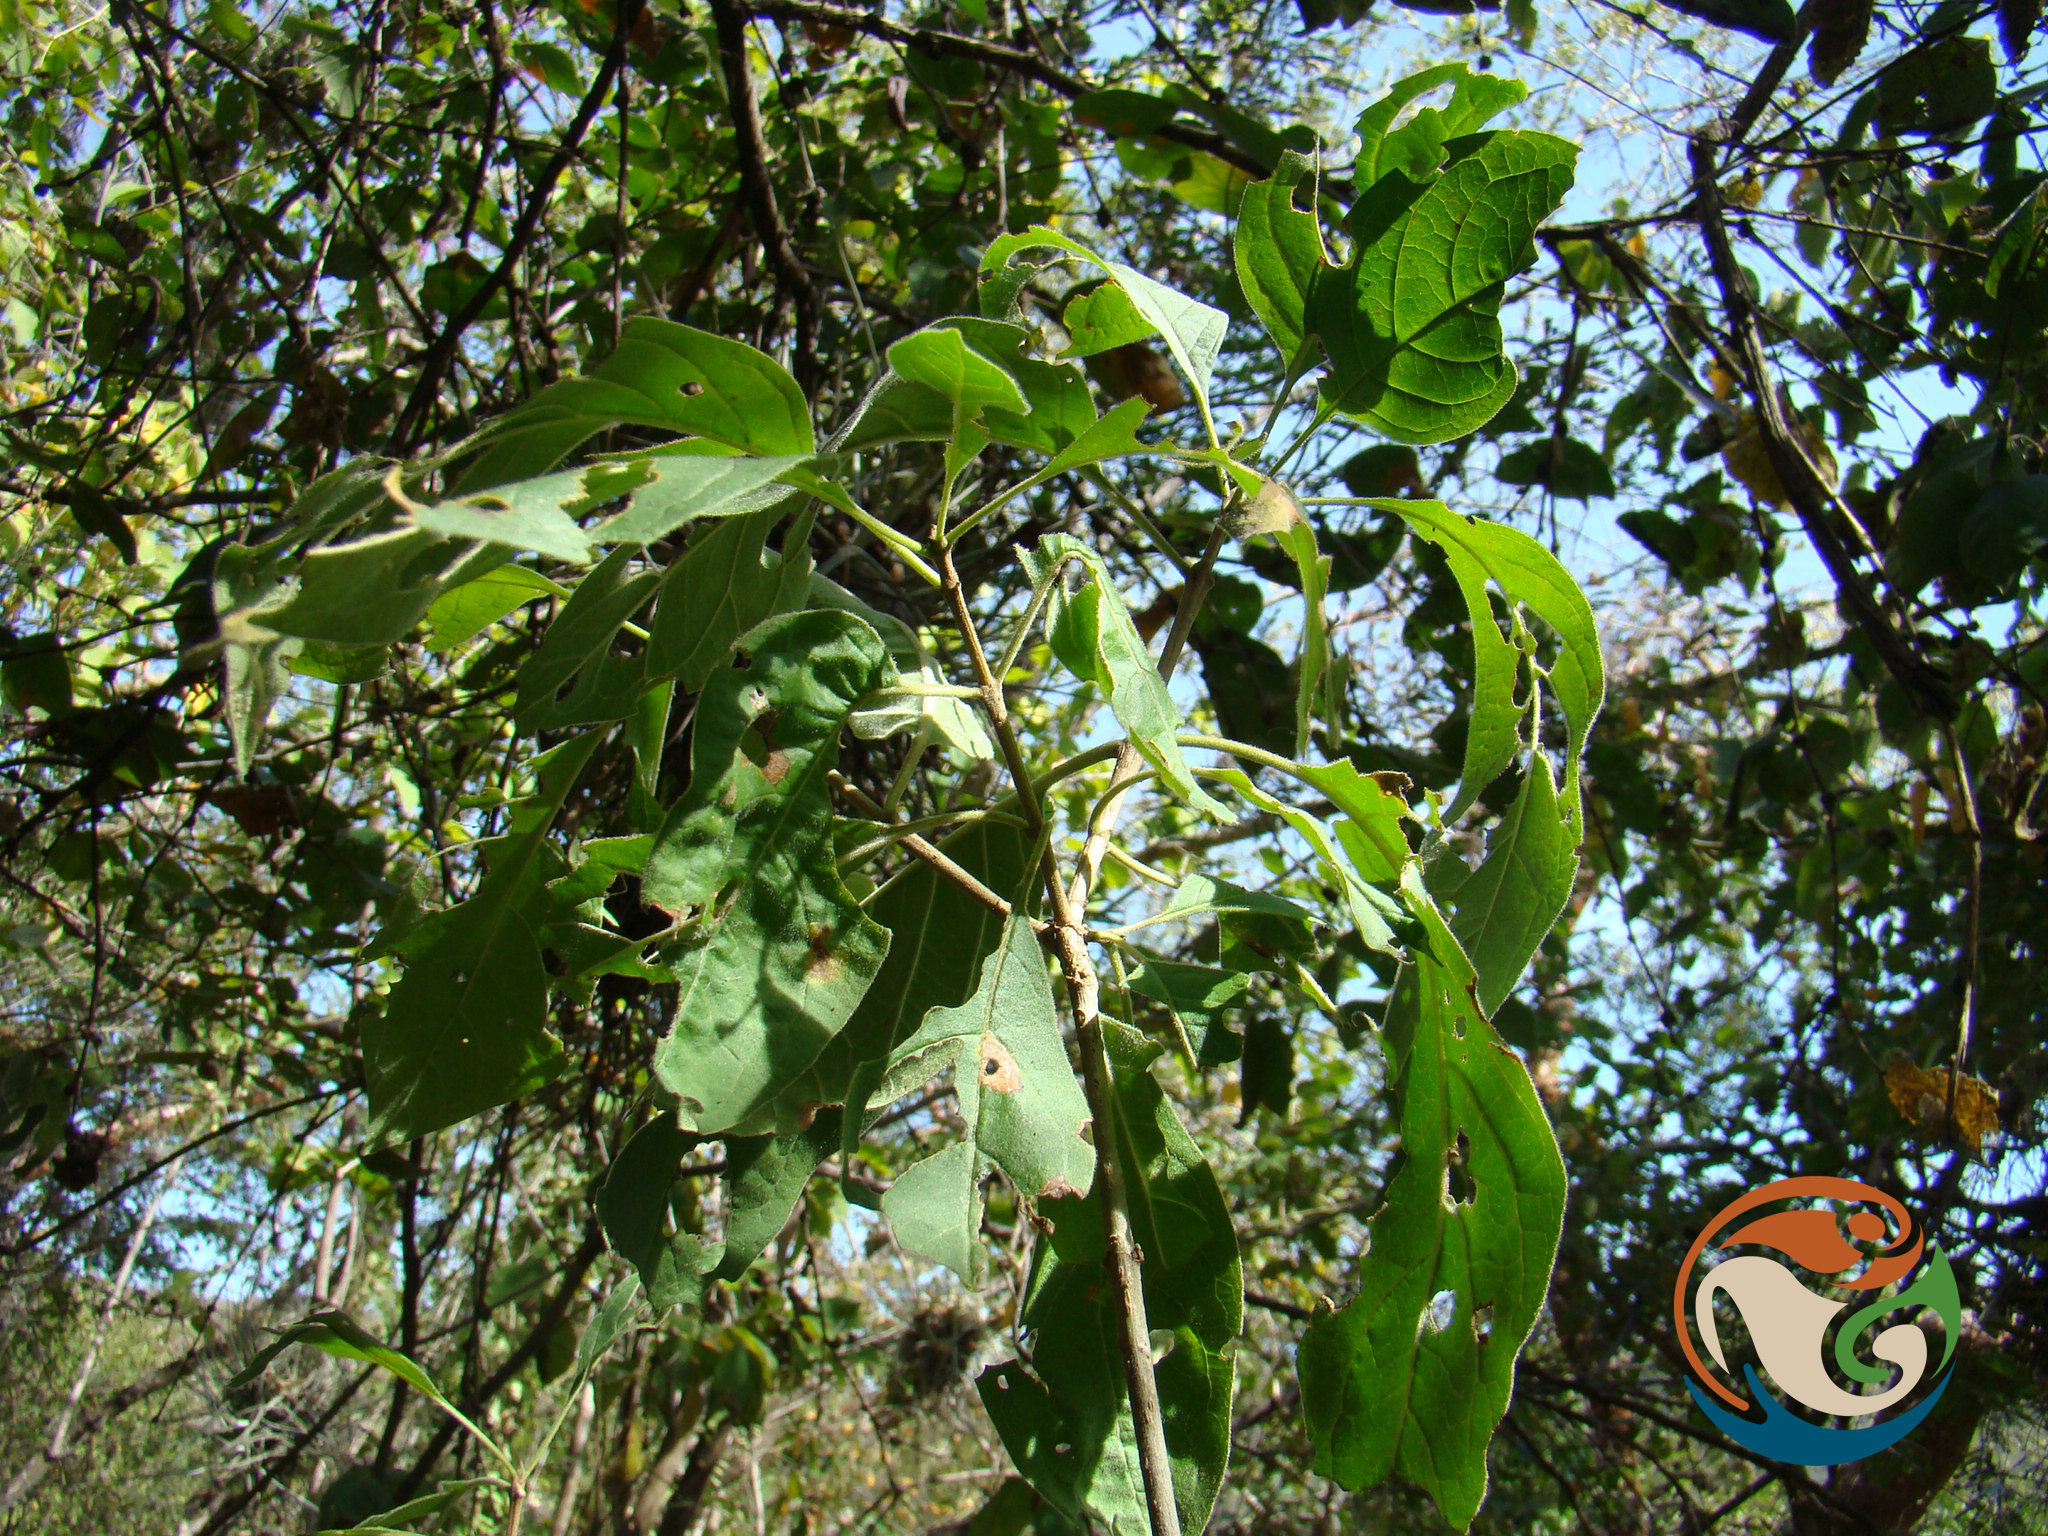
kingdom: Plantae
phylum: Tracheophyta
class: Magnoliopsida
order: Gentianales
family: Rubiaceae
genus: Hintonia
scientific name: Hintonia latiflora
